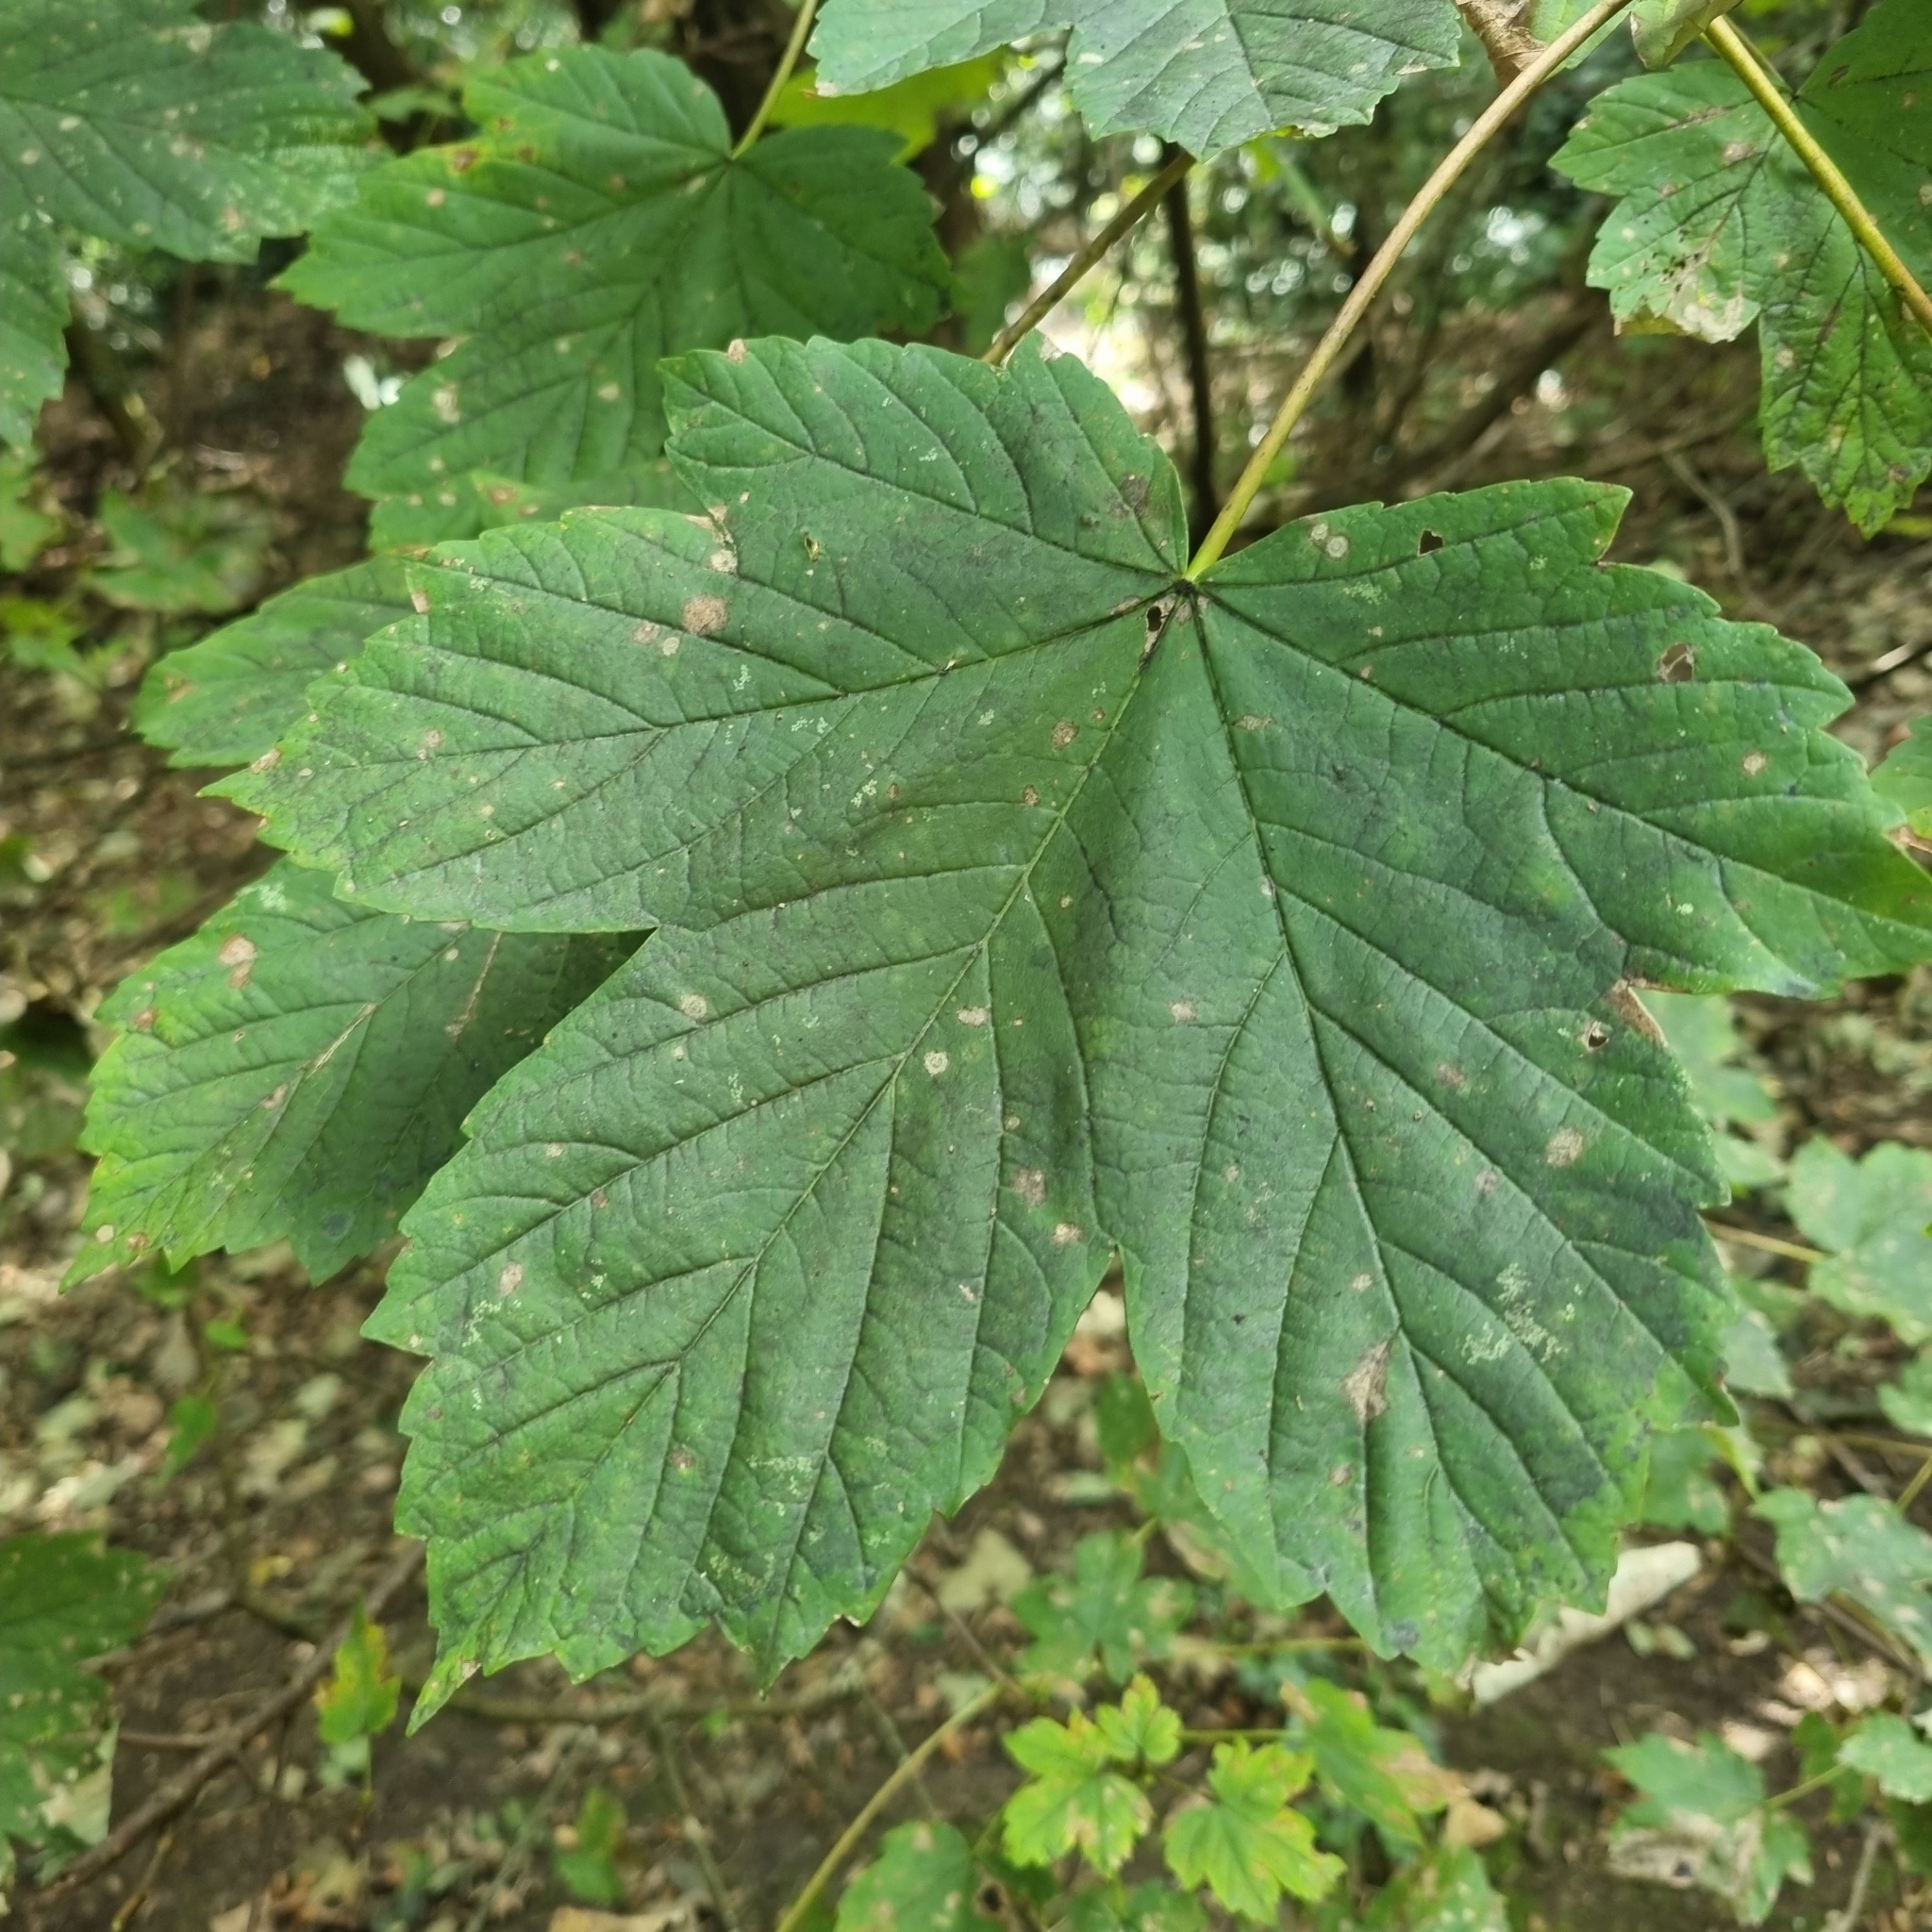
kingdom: Plantae
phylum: Tracheophyta
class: Magnoliopsida
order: Sapindales
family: Sapindaceae
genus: Acer
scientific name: Acer pseudoplatanus
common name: Sycamore
